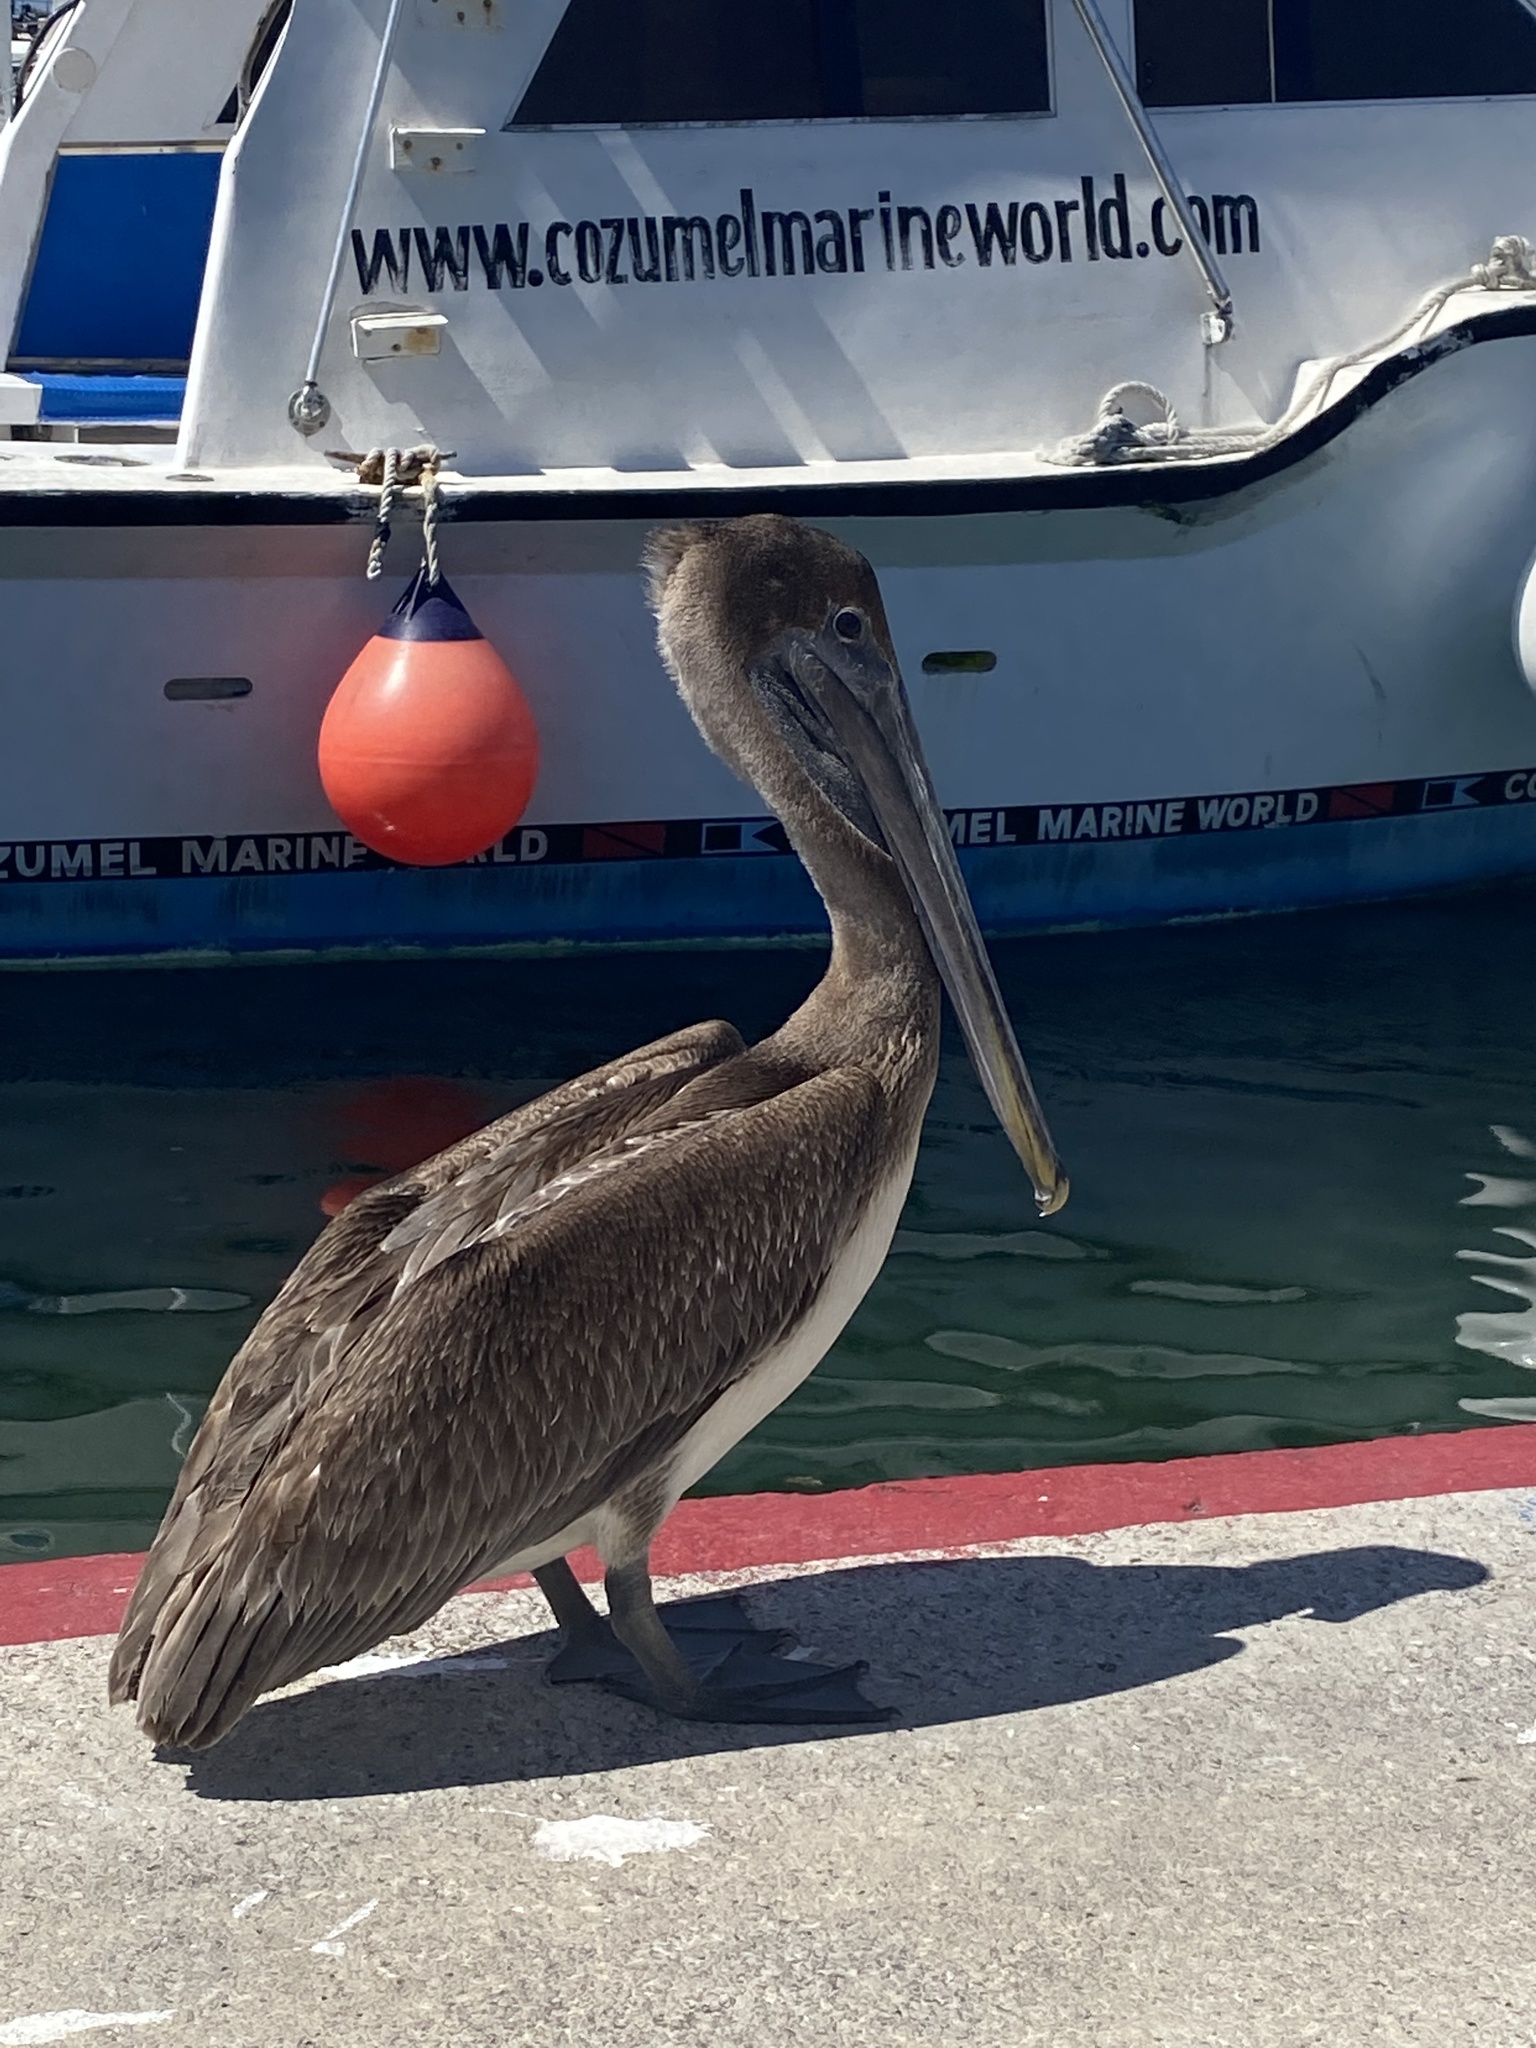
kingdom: Animalia
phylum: Chordata
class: Aves
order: Pelecaniformes
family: Pelecanidae
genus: Pelecanus
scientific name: Pelecanus occidentalis
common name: Brown pelican
